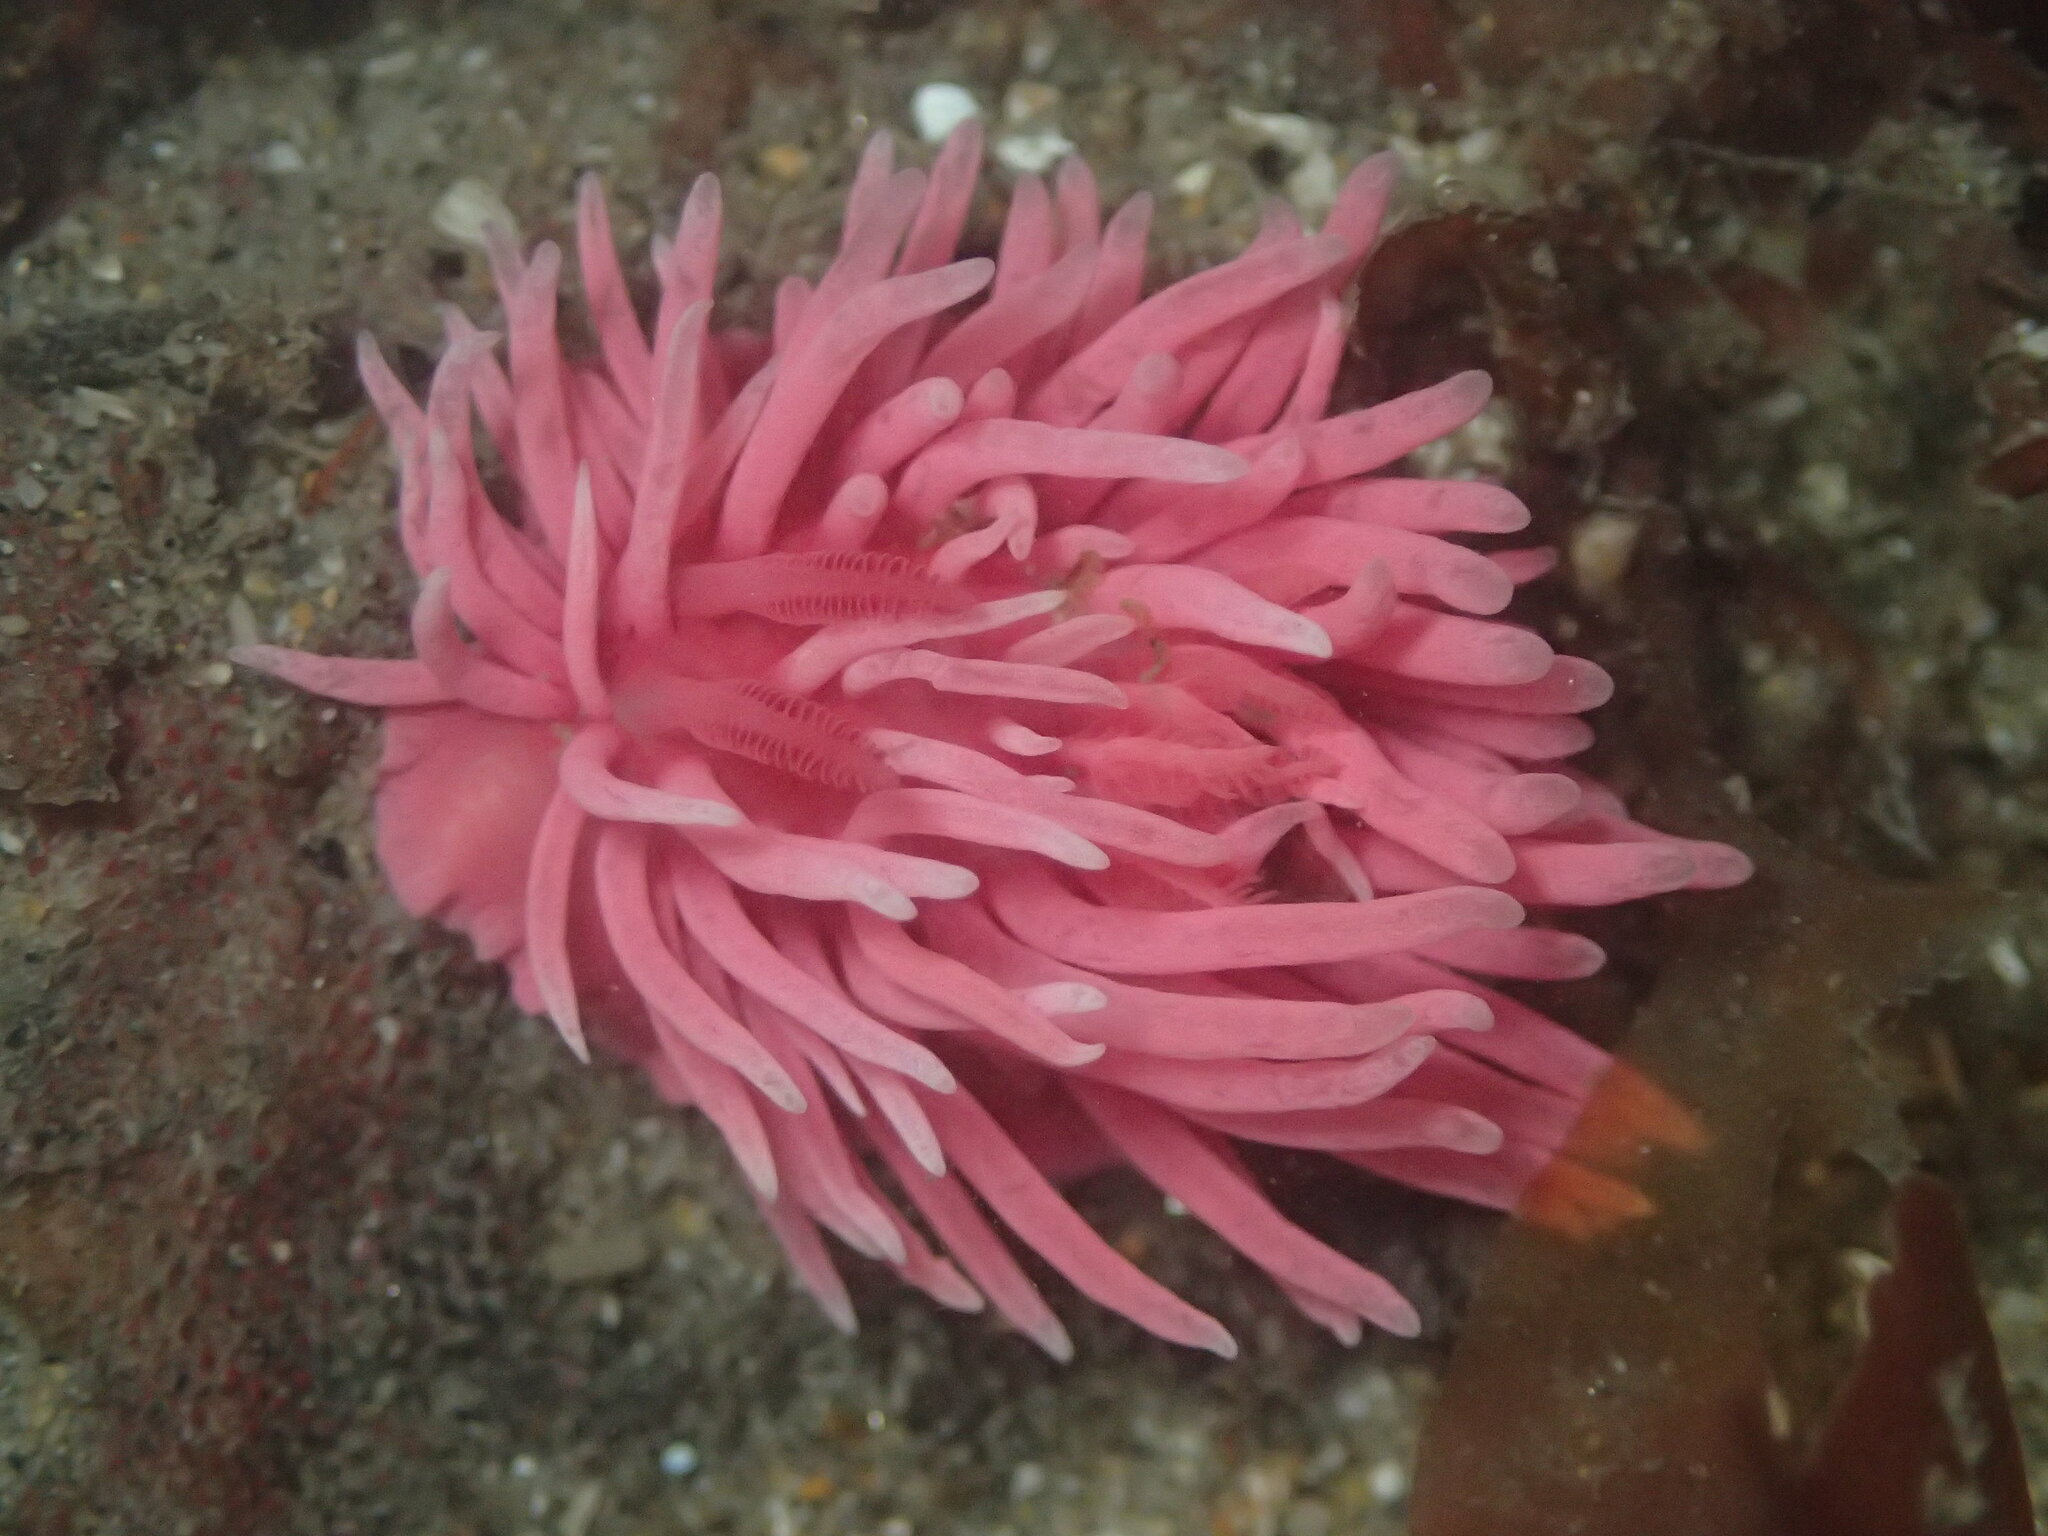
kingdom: Animalia
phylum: Mollusca
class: Gastropoda
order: Nudibranchia
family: Goniodorididae
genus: Okenia
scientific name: Okenia
